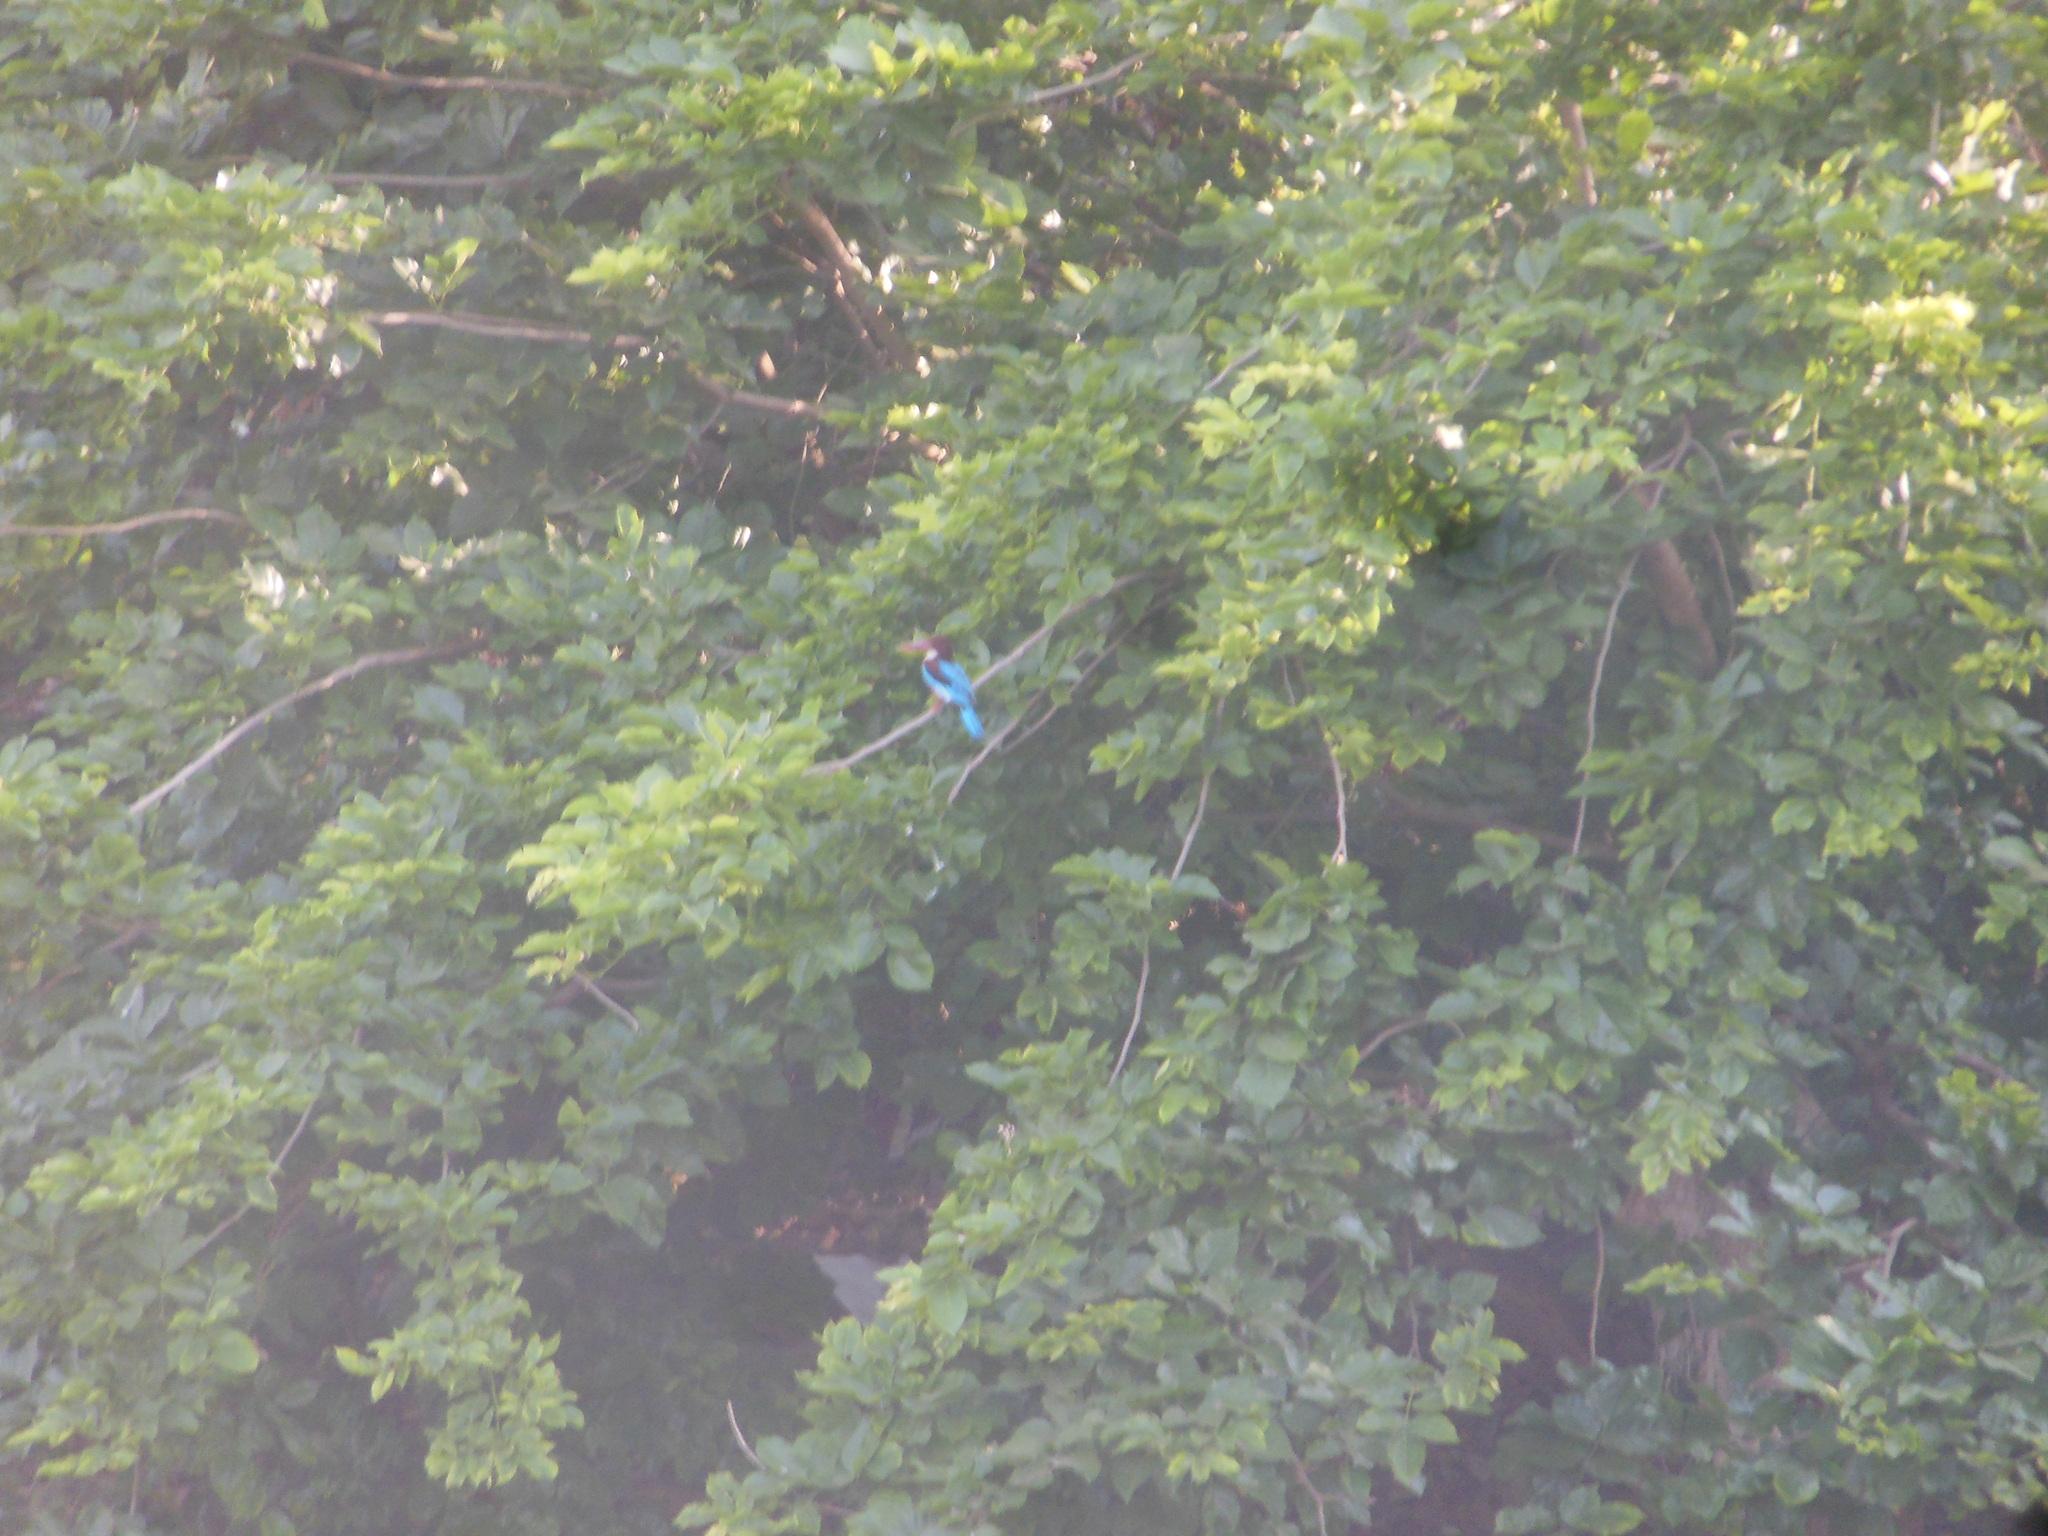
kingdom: Animalia
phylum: Chordata
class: Aves
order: Coraciiformes
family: Alcedinidae
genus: Halcyon
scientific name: Halcyon smyrnensis
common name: White-throated kingfisher
